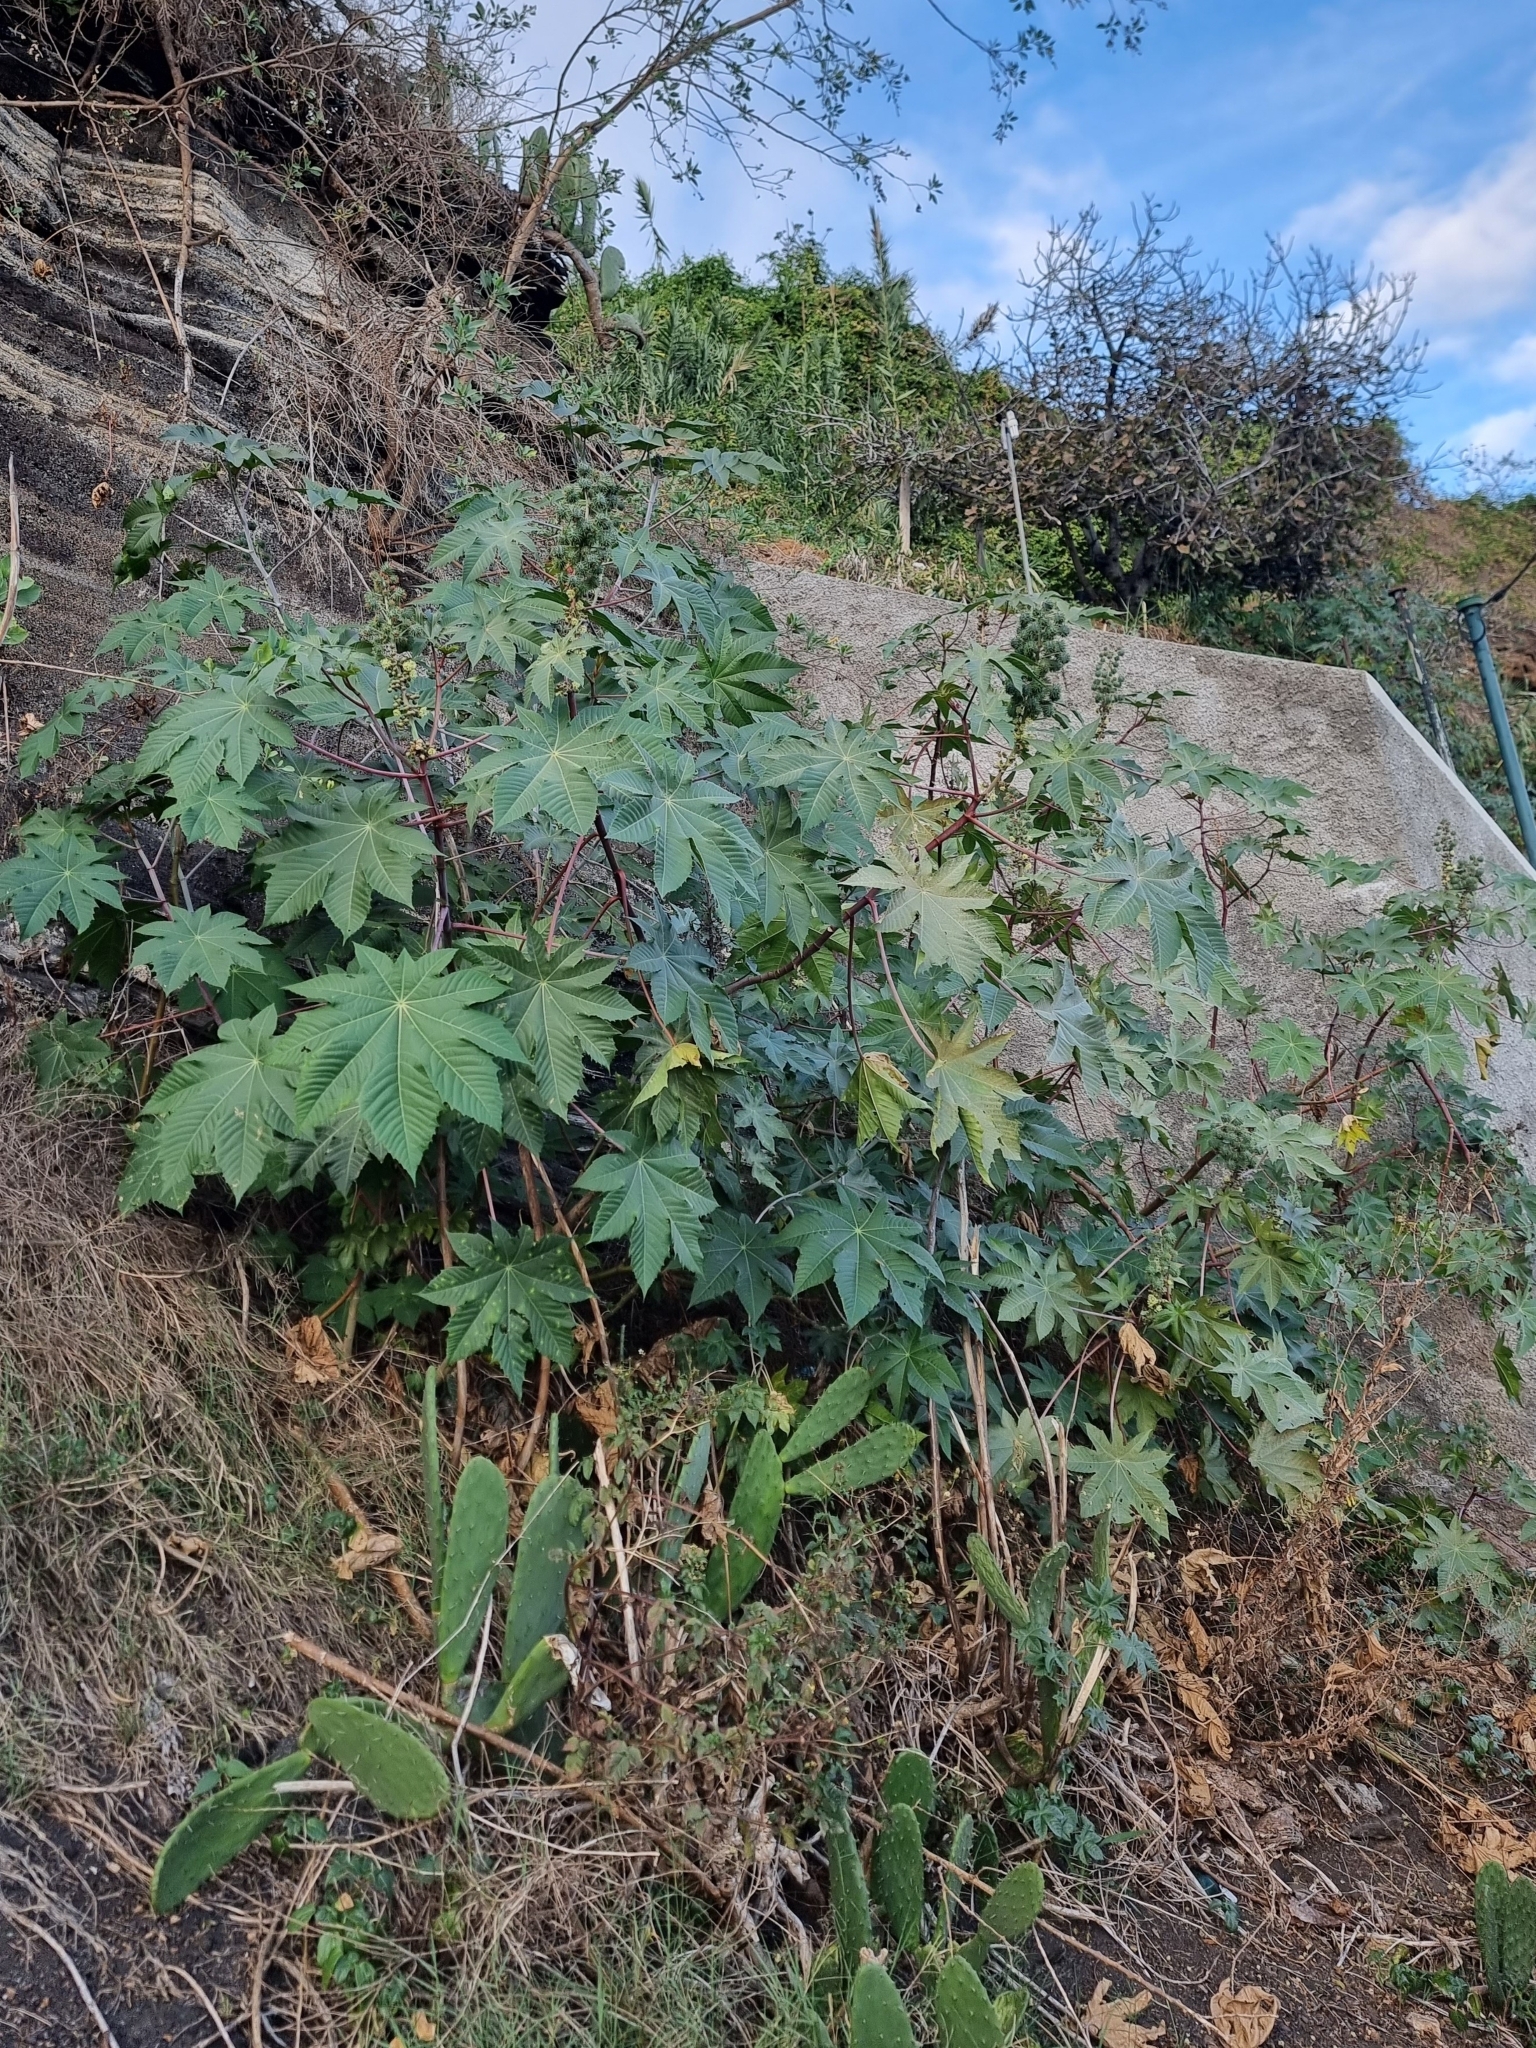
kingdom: Plantae
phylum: Tracheophyta
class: Magnoliopsida
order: Malpighiales
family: Euphorbiaceae
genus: Ricinus
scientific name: Ricinus communis
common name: Castor-oil-plant
